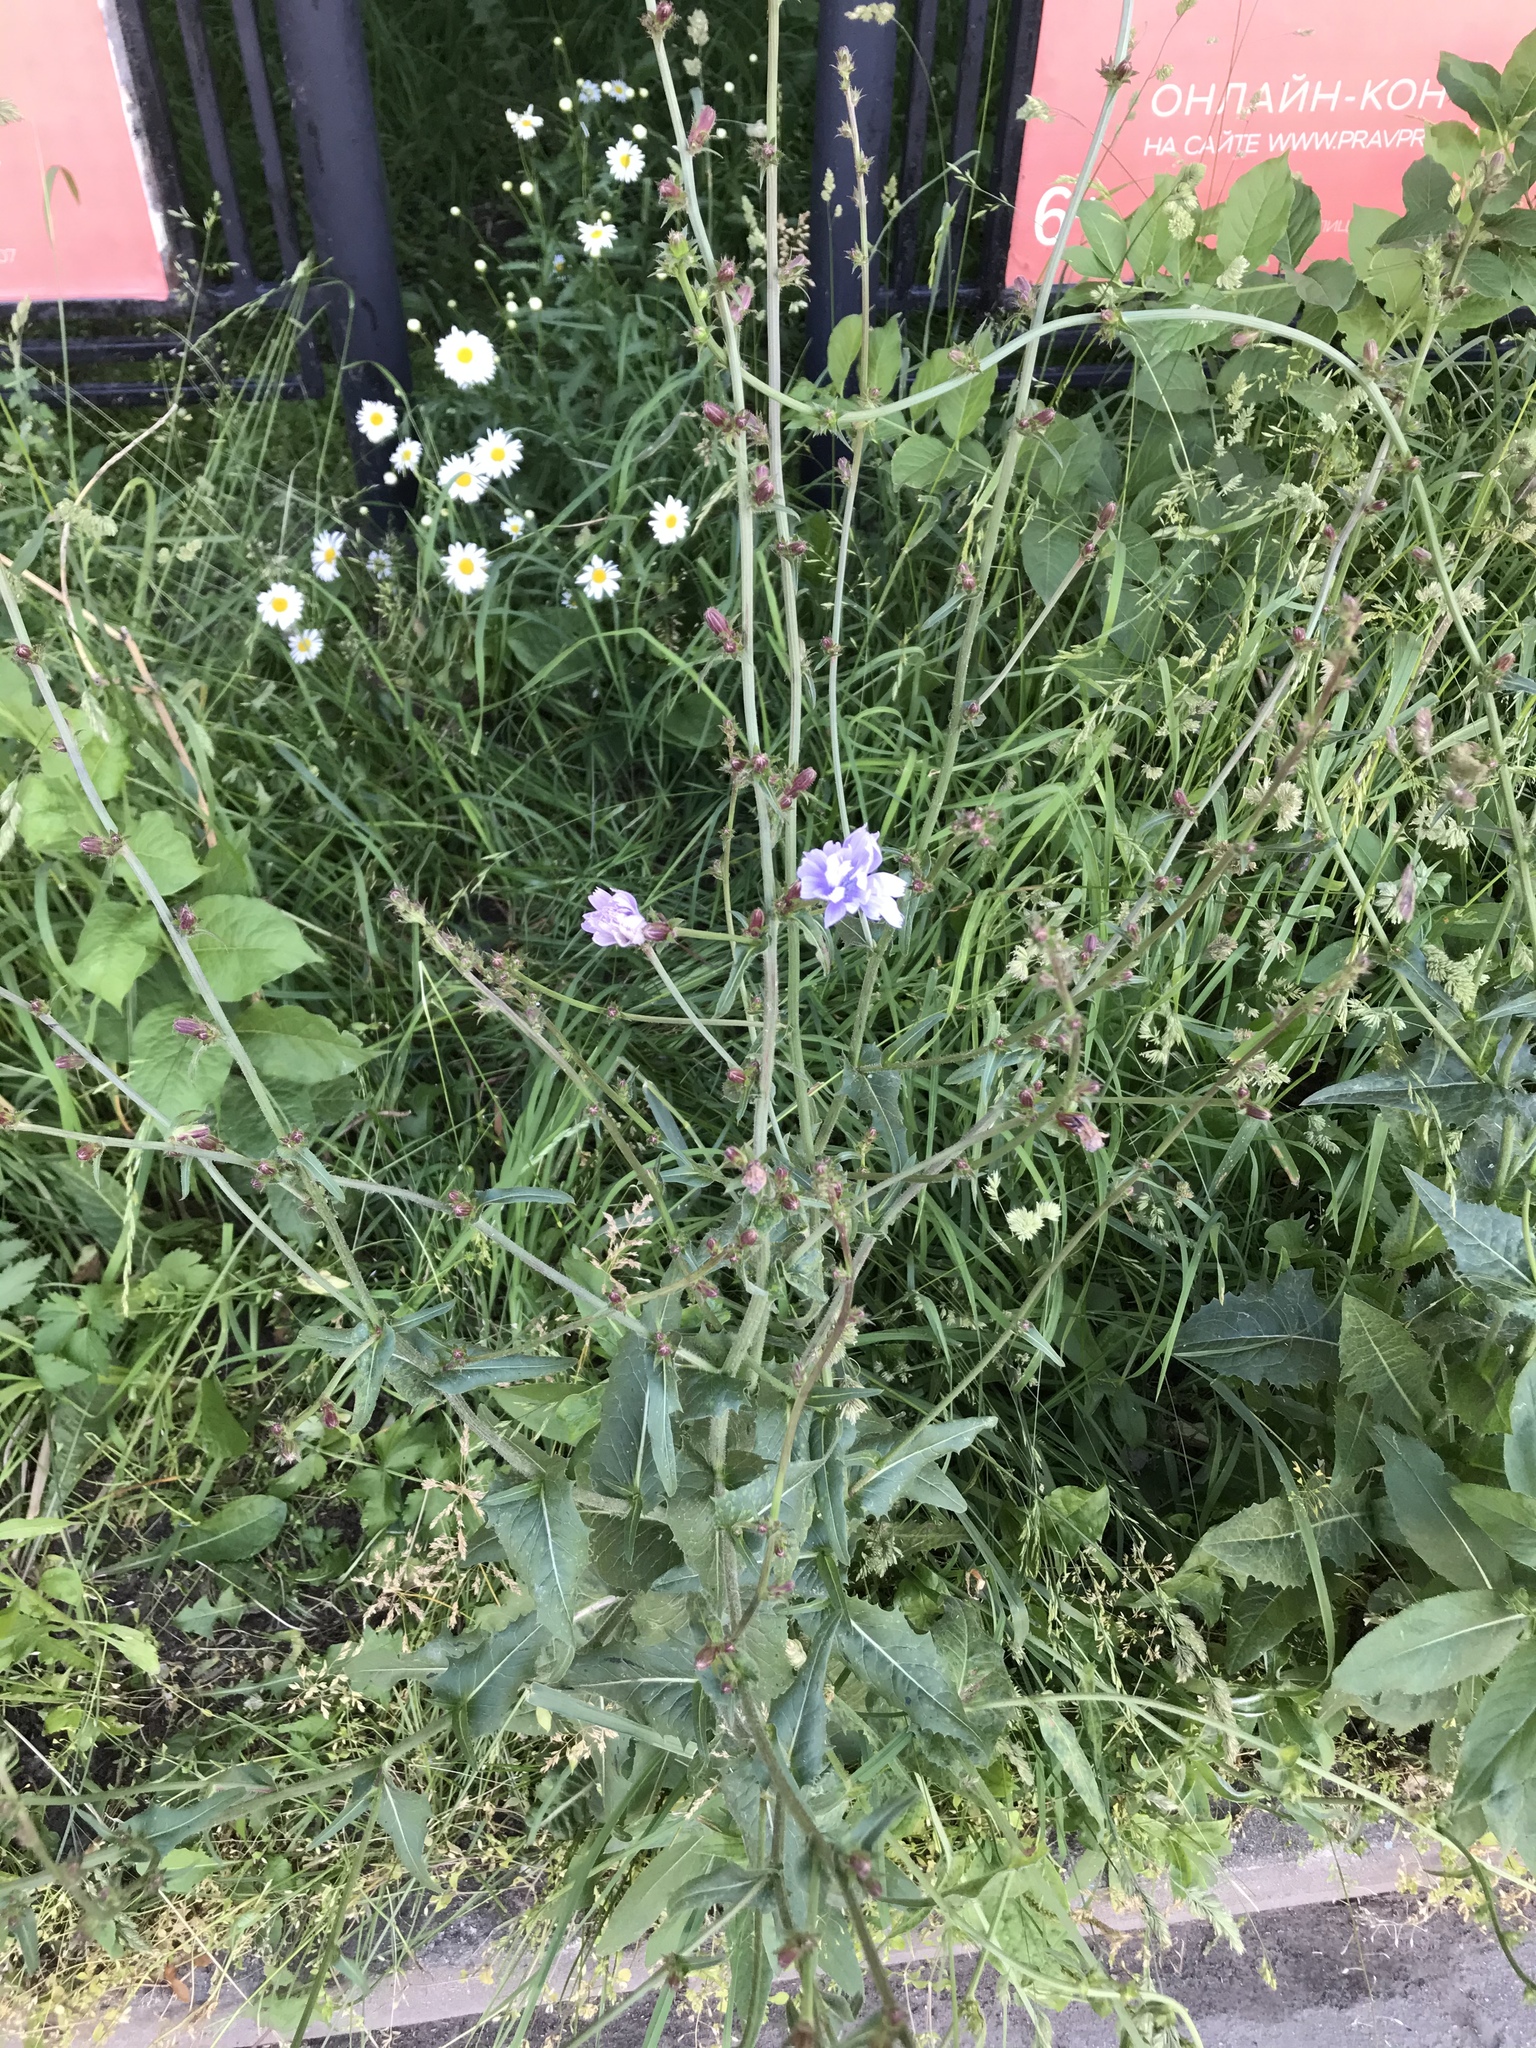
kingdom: Plantae
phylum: Tracheophyta
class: Magnoliopsida
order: Asterales
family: Asteraceae
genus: Cichorium
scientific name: Cichorium intybus
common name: Chicory
